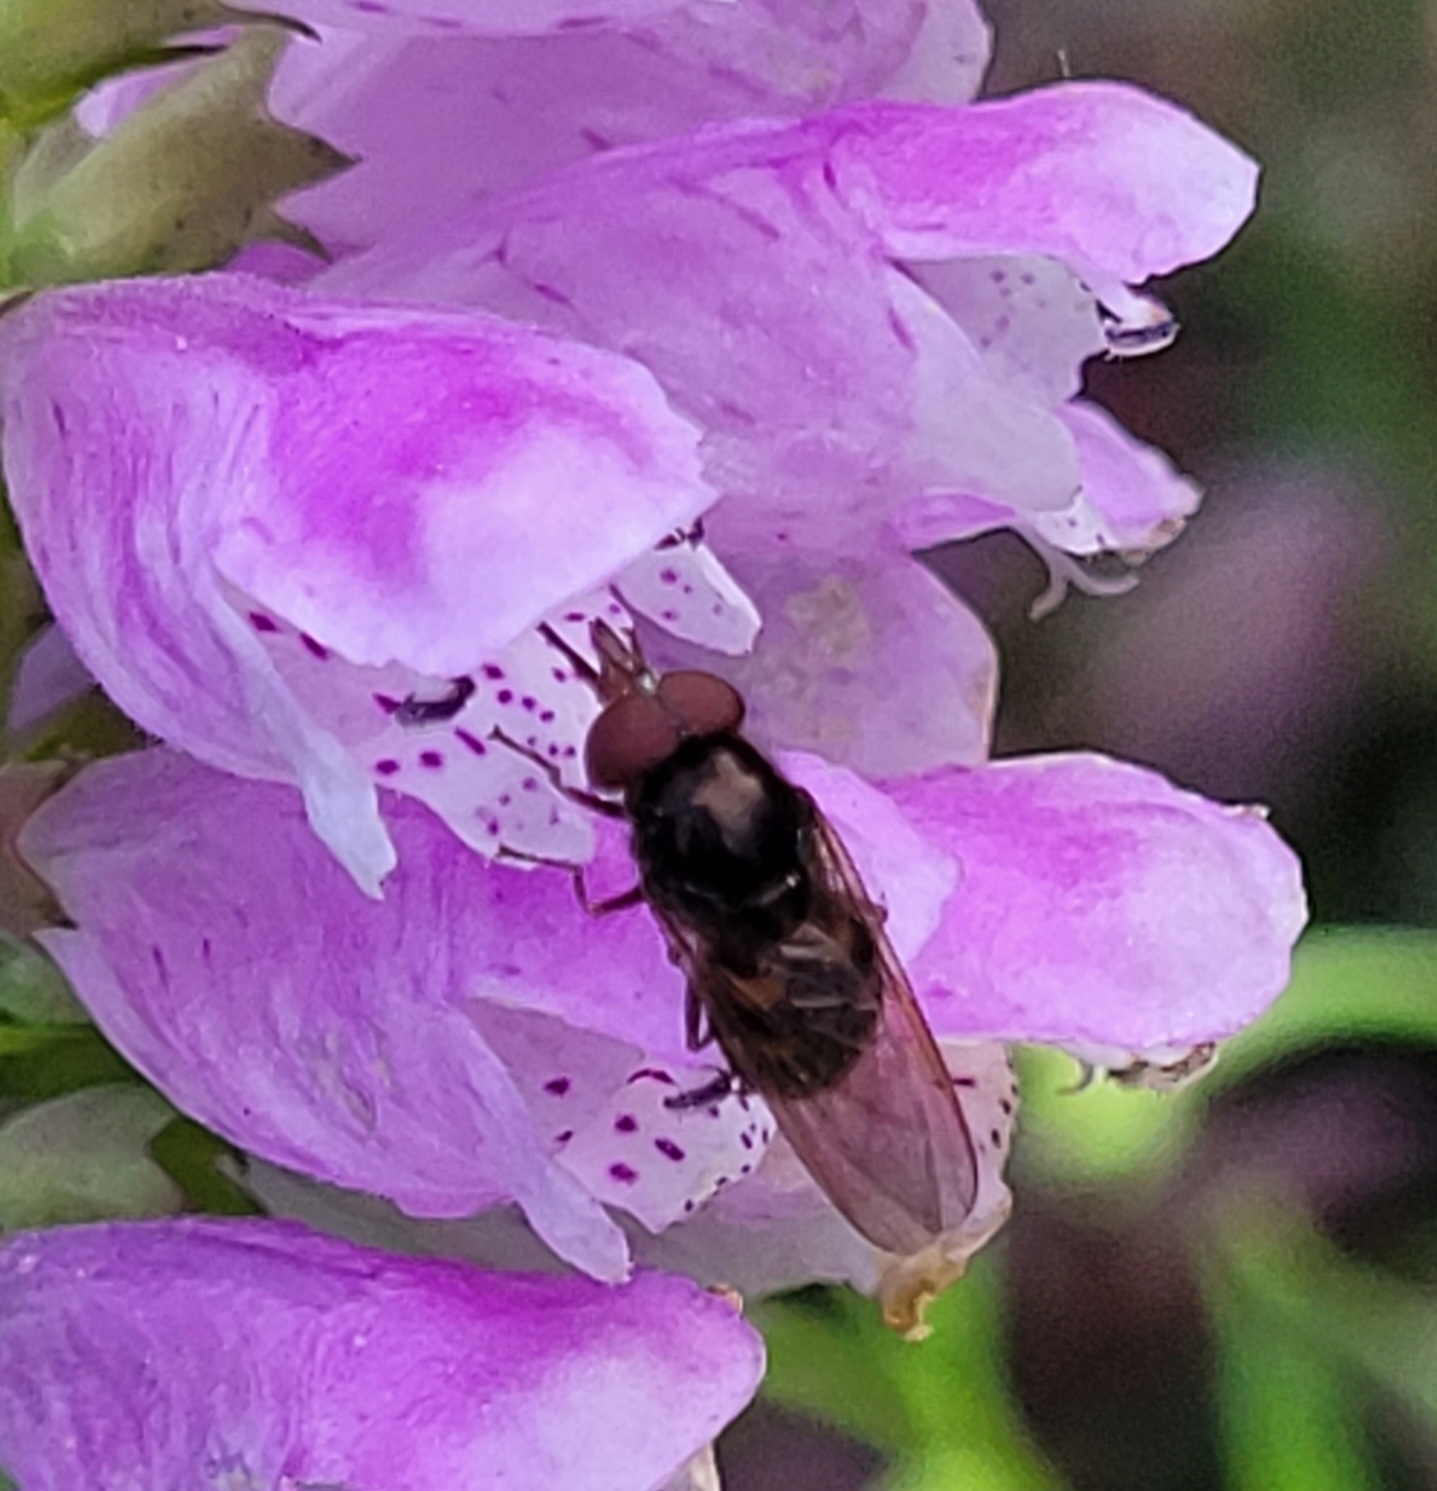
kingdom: Animalia
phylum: Arthropoda
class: Insecta
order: Diptera
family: Syrphidae
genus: Rhingia
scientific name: Rhingia nasica
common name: American snout fly
